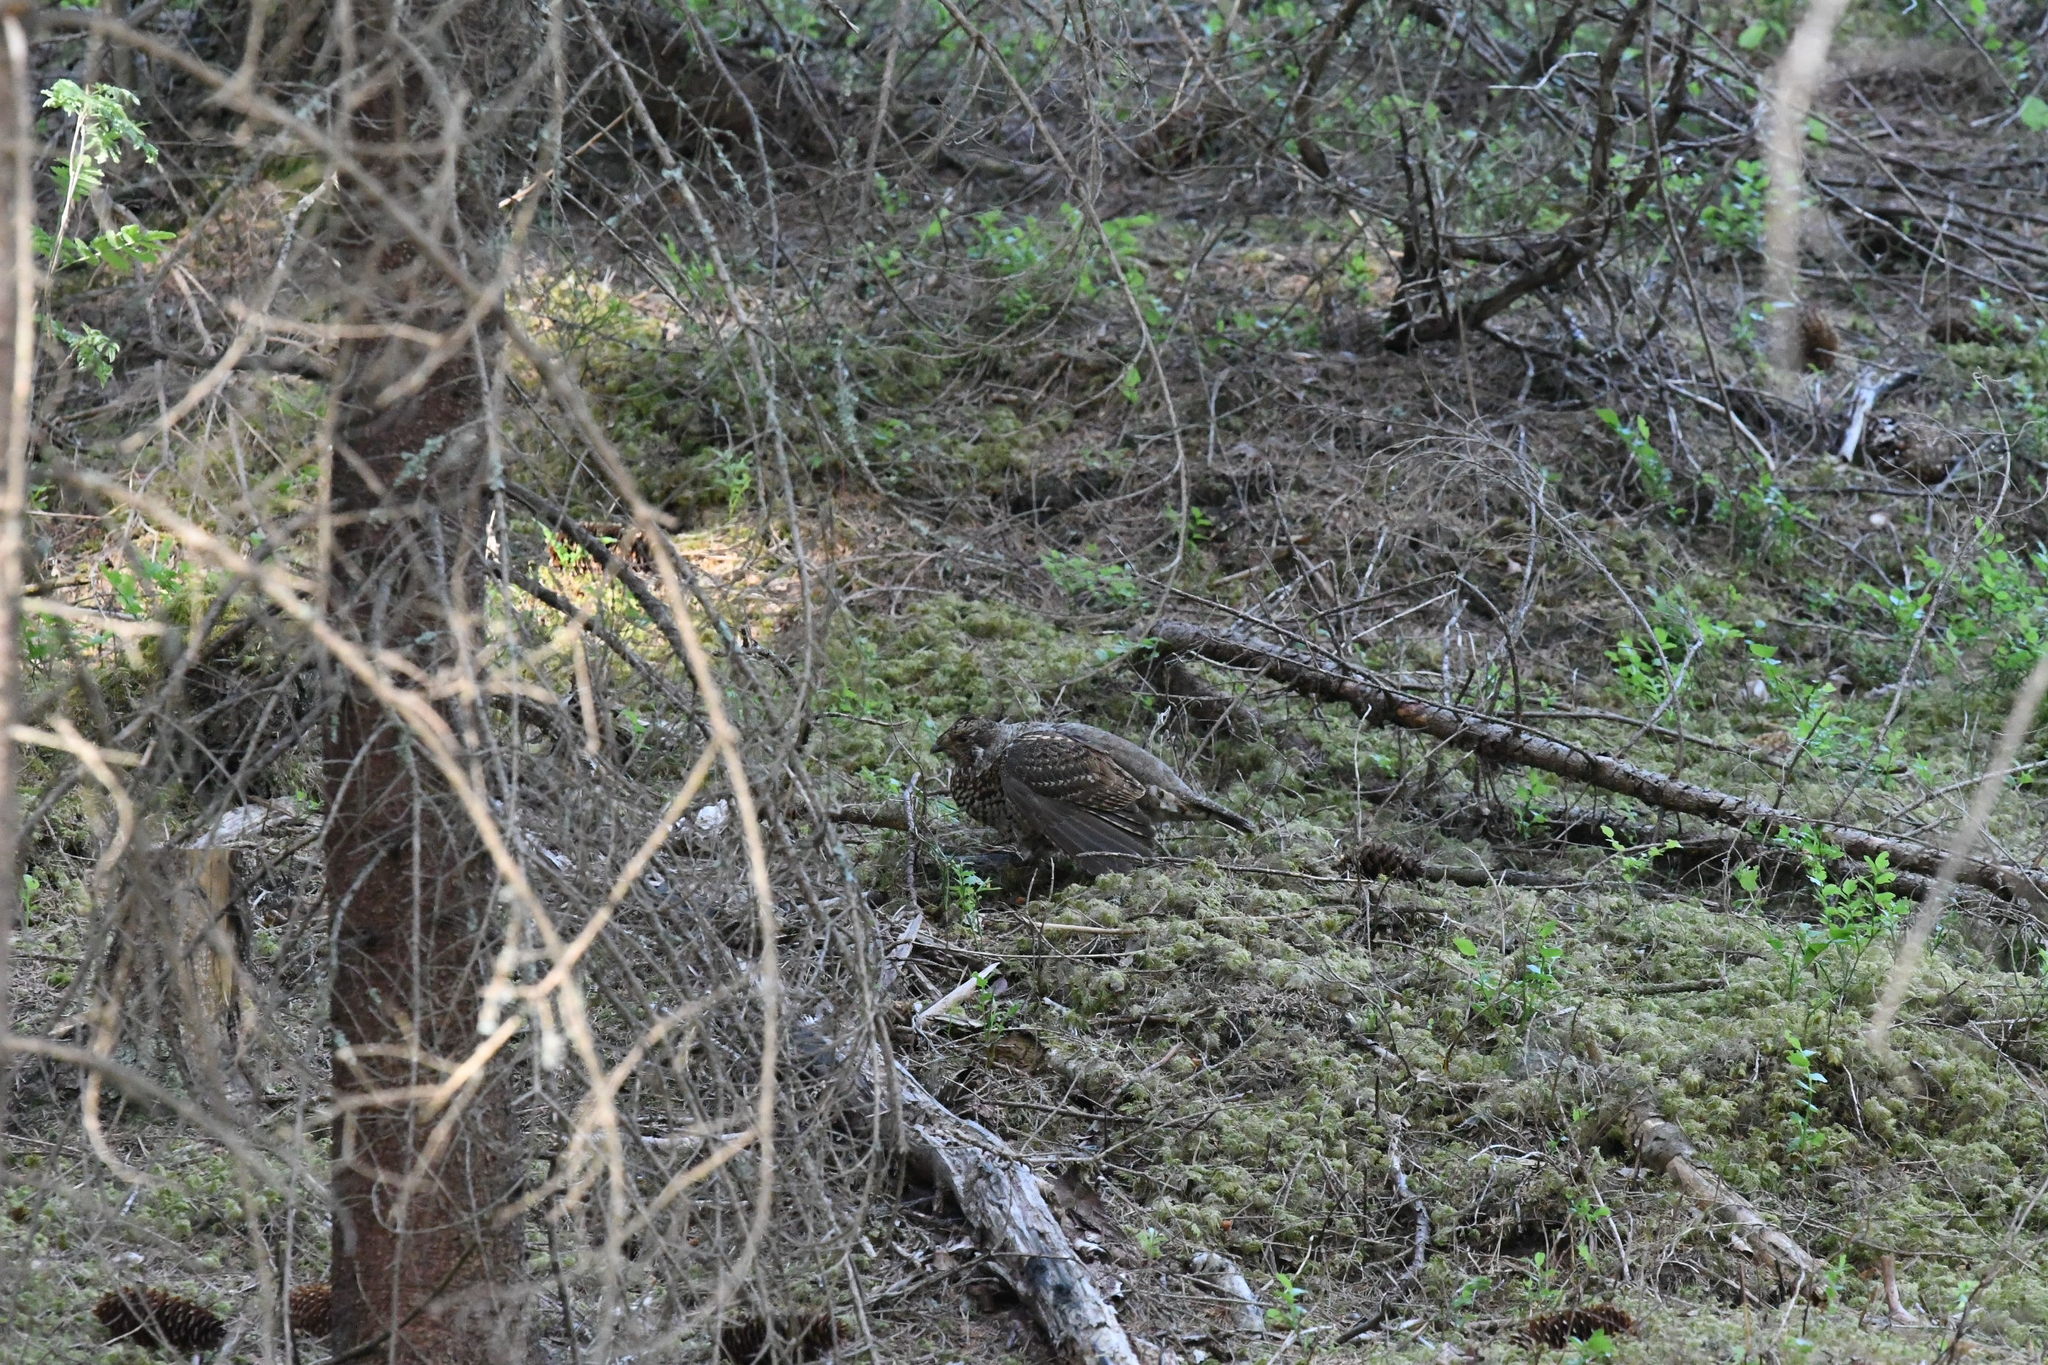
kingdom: Animalia
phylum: Chordata
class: Aves
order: Galliformes
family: Phasianidae
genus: Tetrastes
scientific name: Tetrastes bonasia
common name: Hazel grouse
